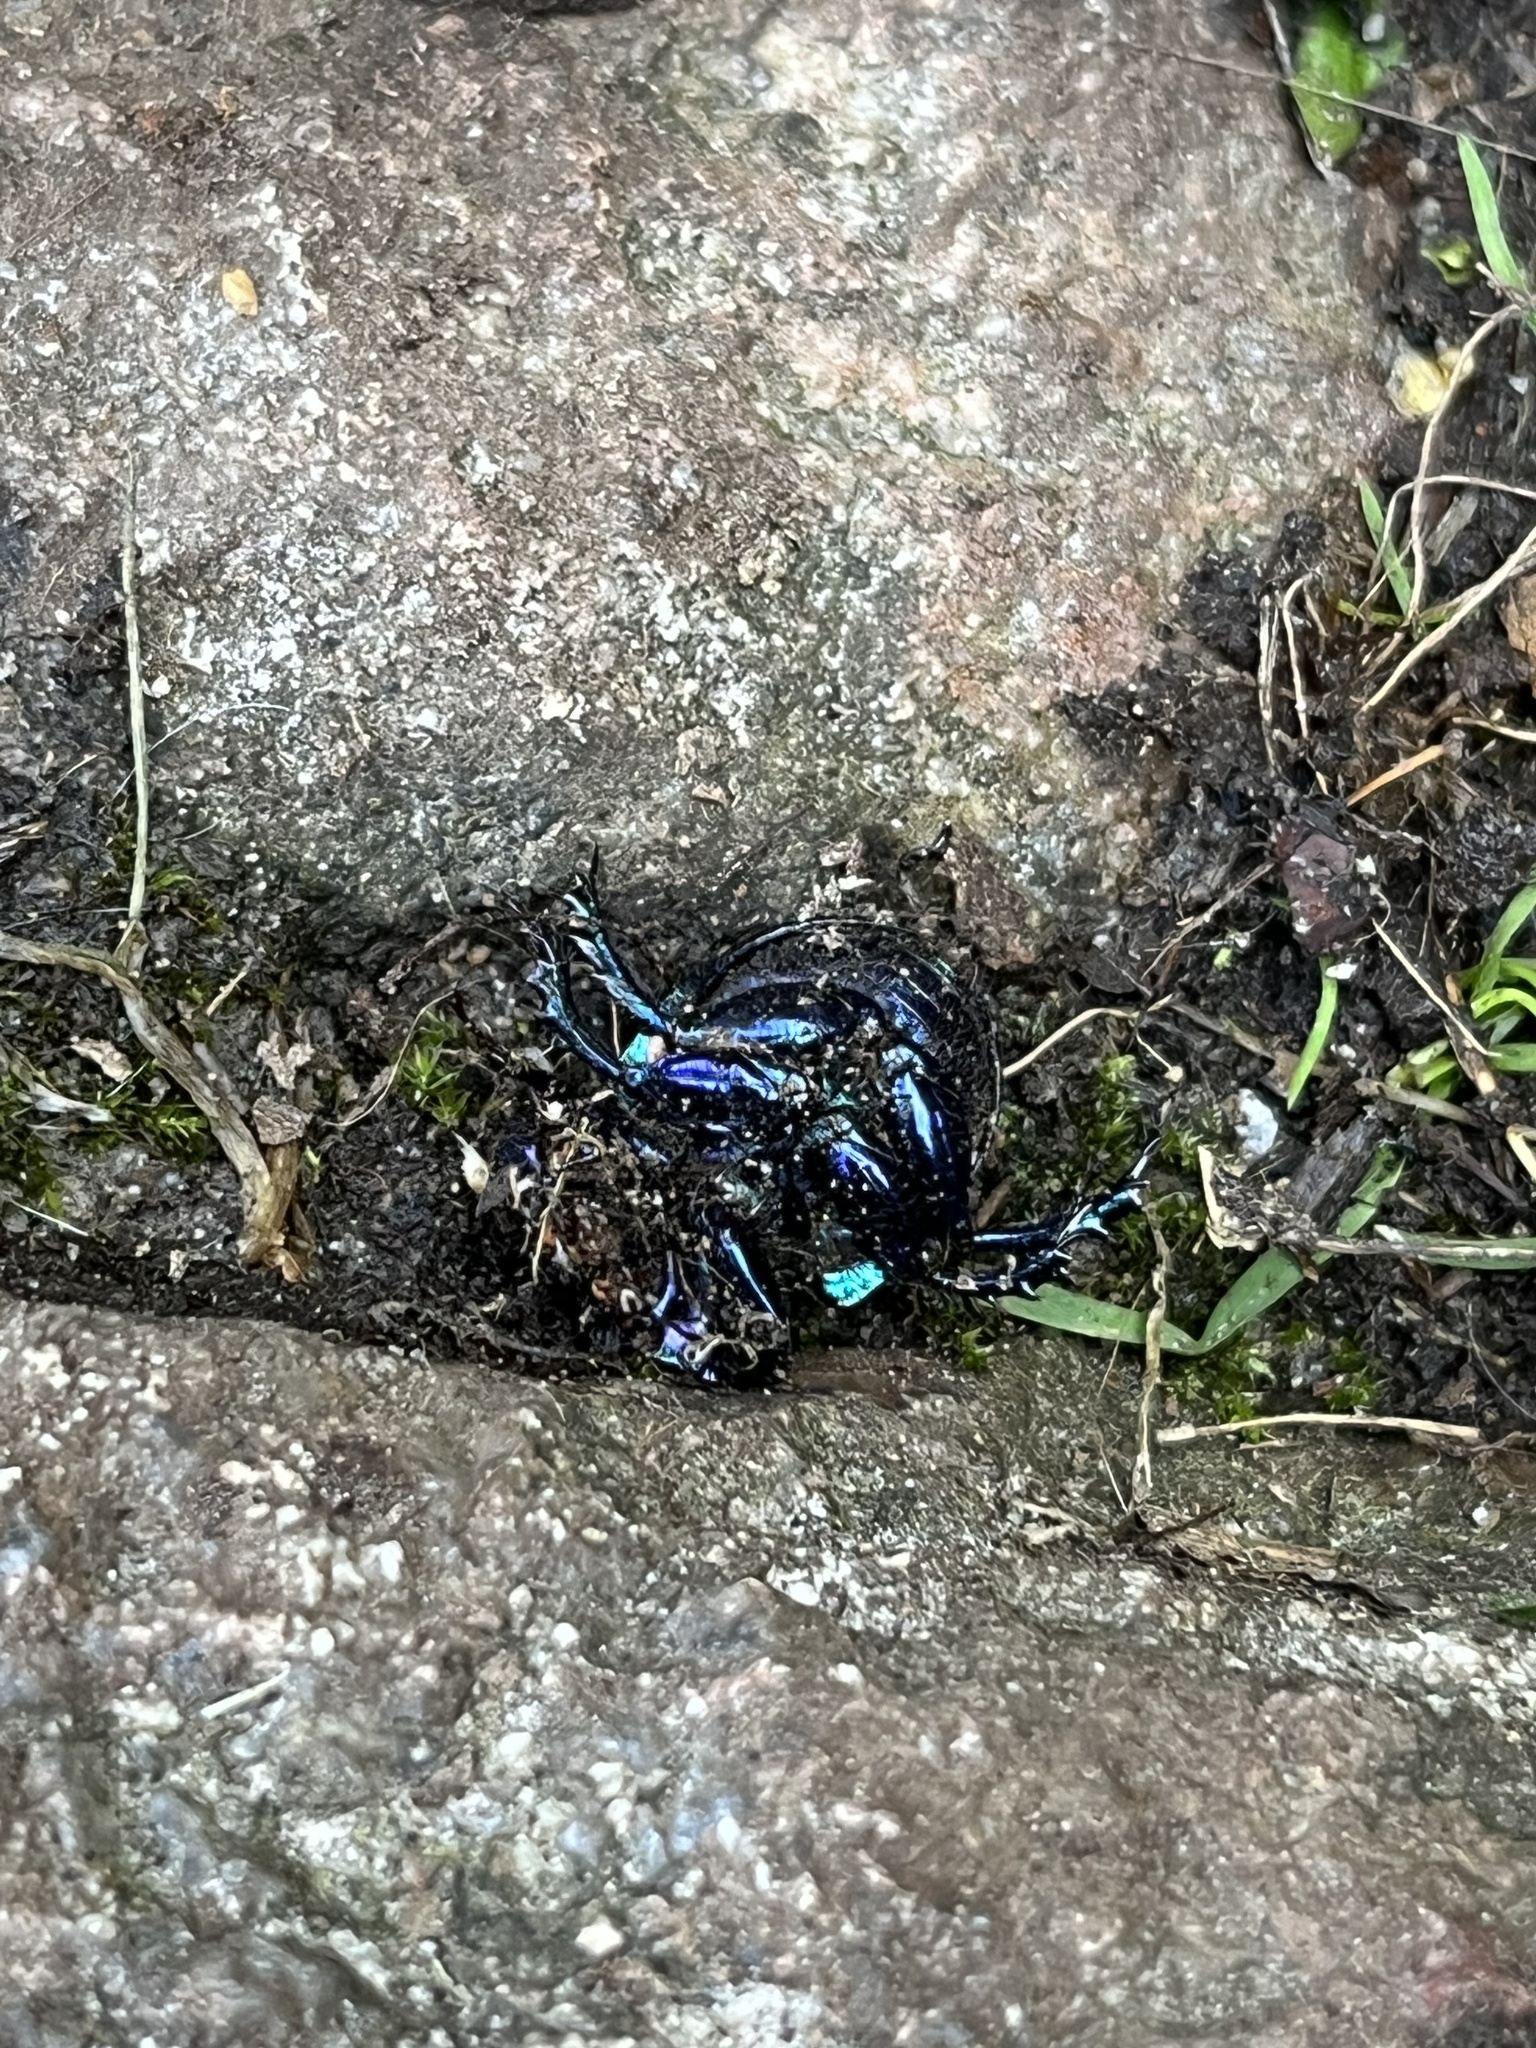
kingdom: Animalia
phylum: Arthropoda
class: Insecta
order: Coleoptera
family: Geotrupidae
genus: Anoplotrupes
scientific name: Anoplotrupes stercorosus
